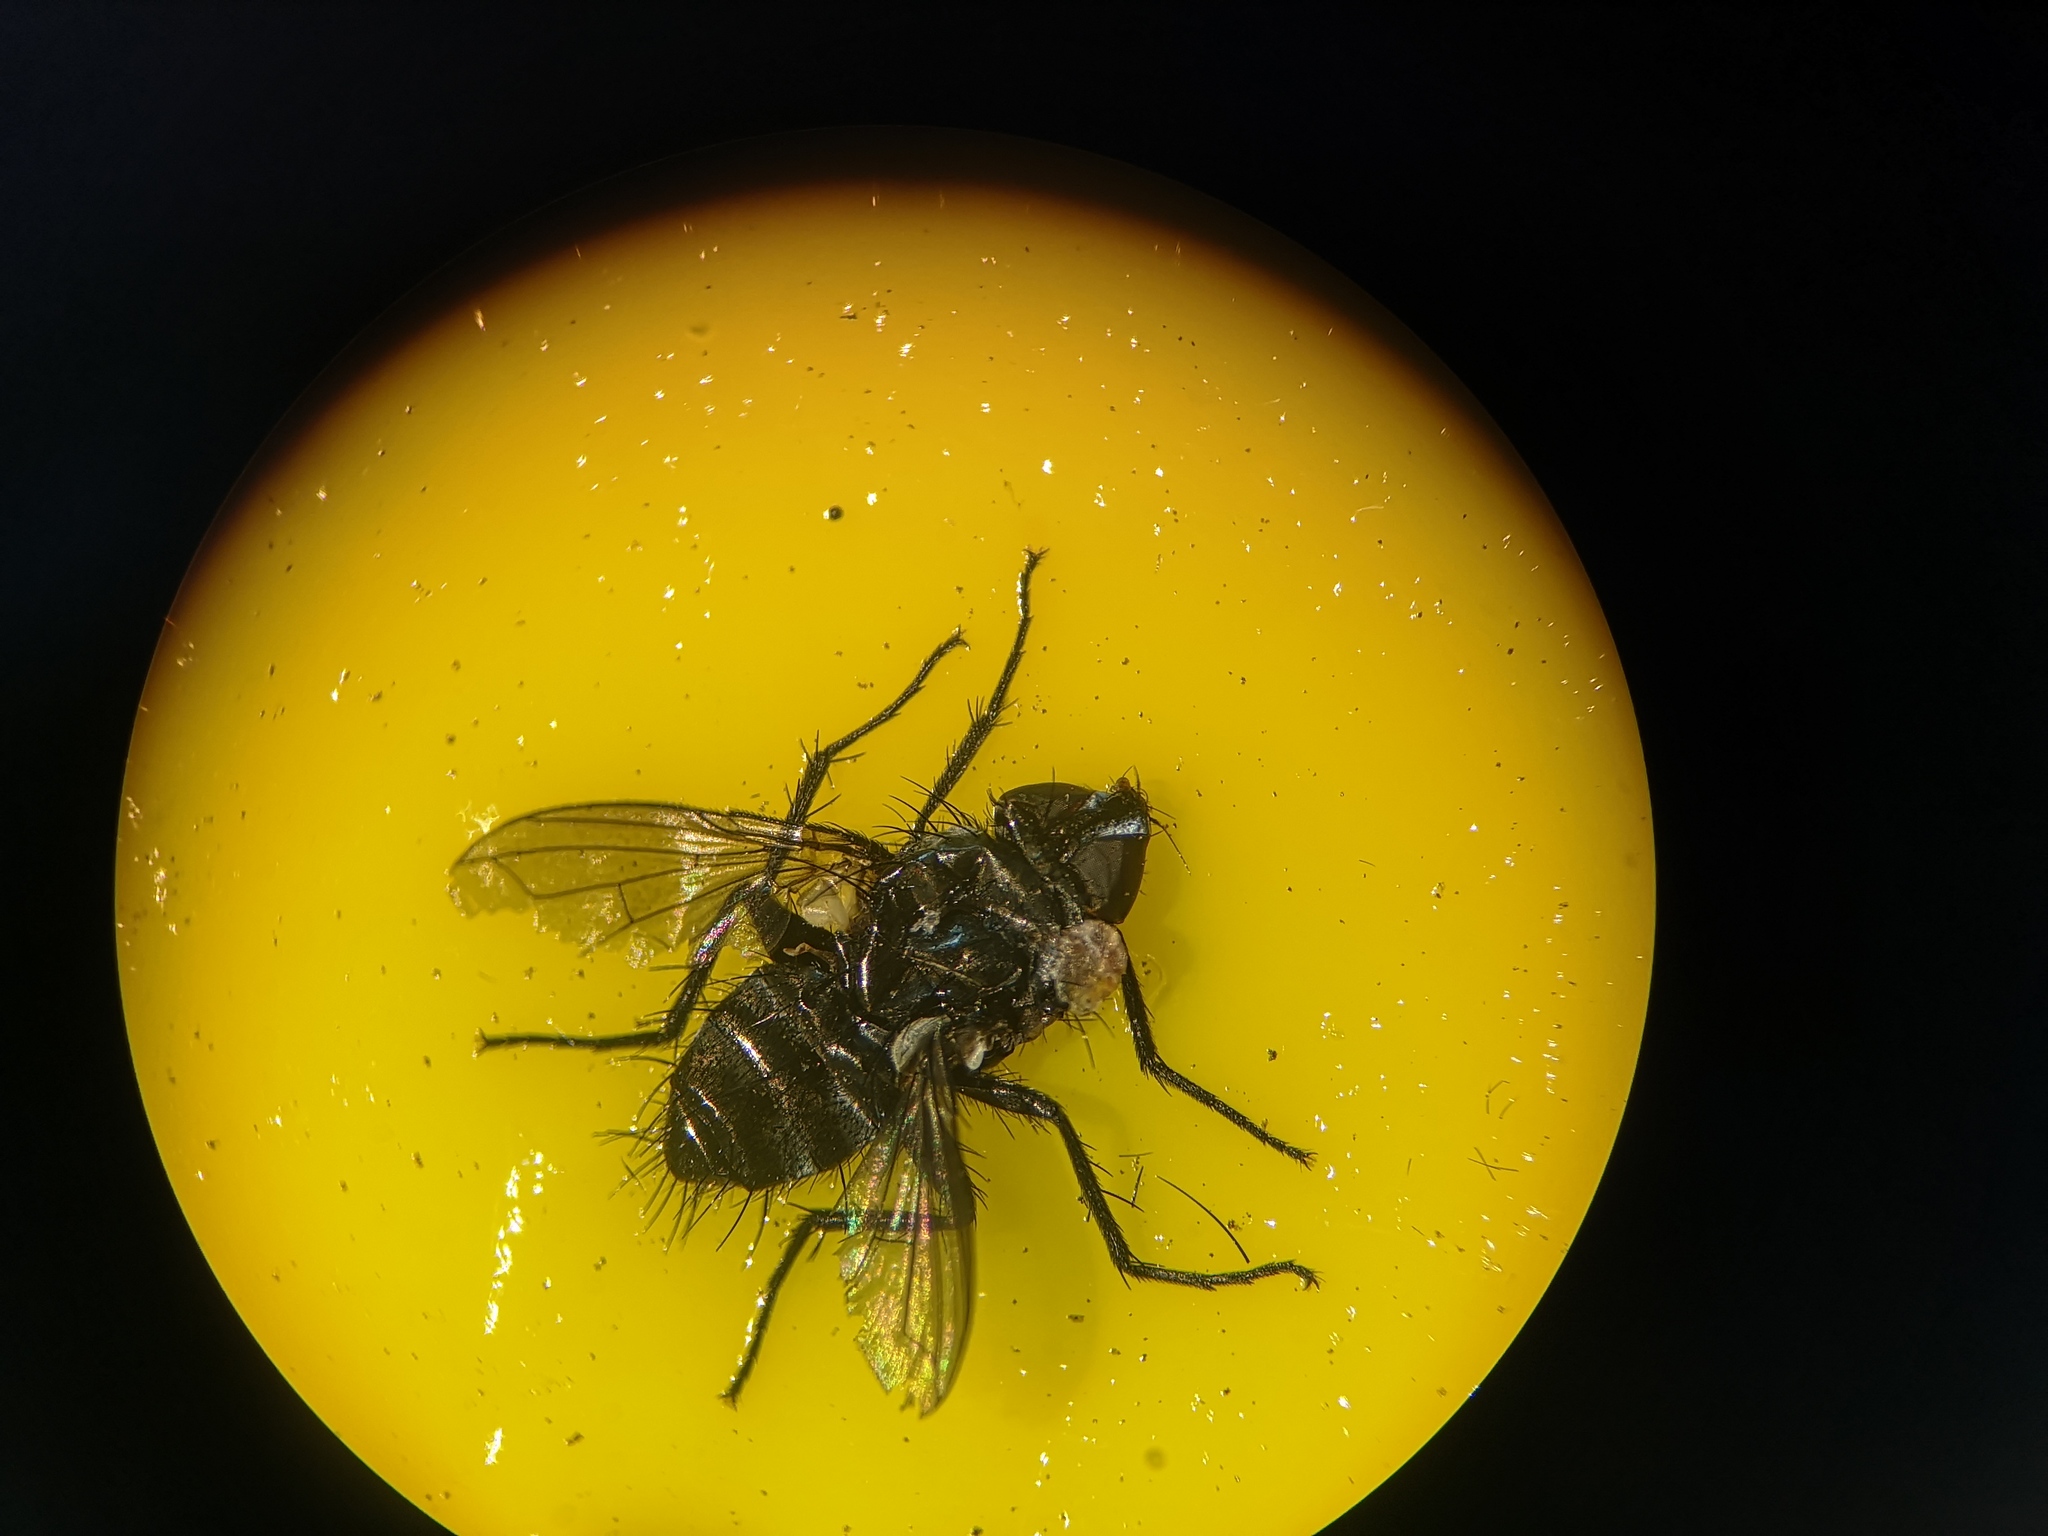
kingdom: Animalia
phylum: Arthropoda
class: Insecta
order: Diptera
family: Calliphoridae
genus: Rhinophora
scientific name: Rhinophora lepida
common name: Pouting woodlouse-fly
